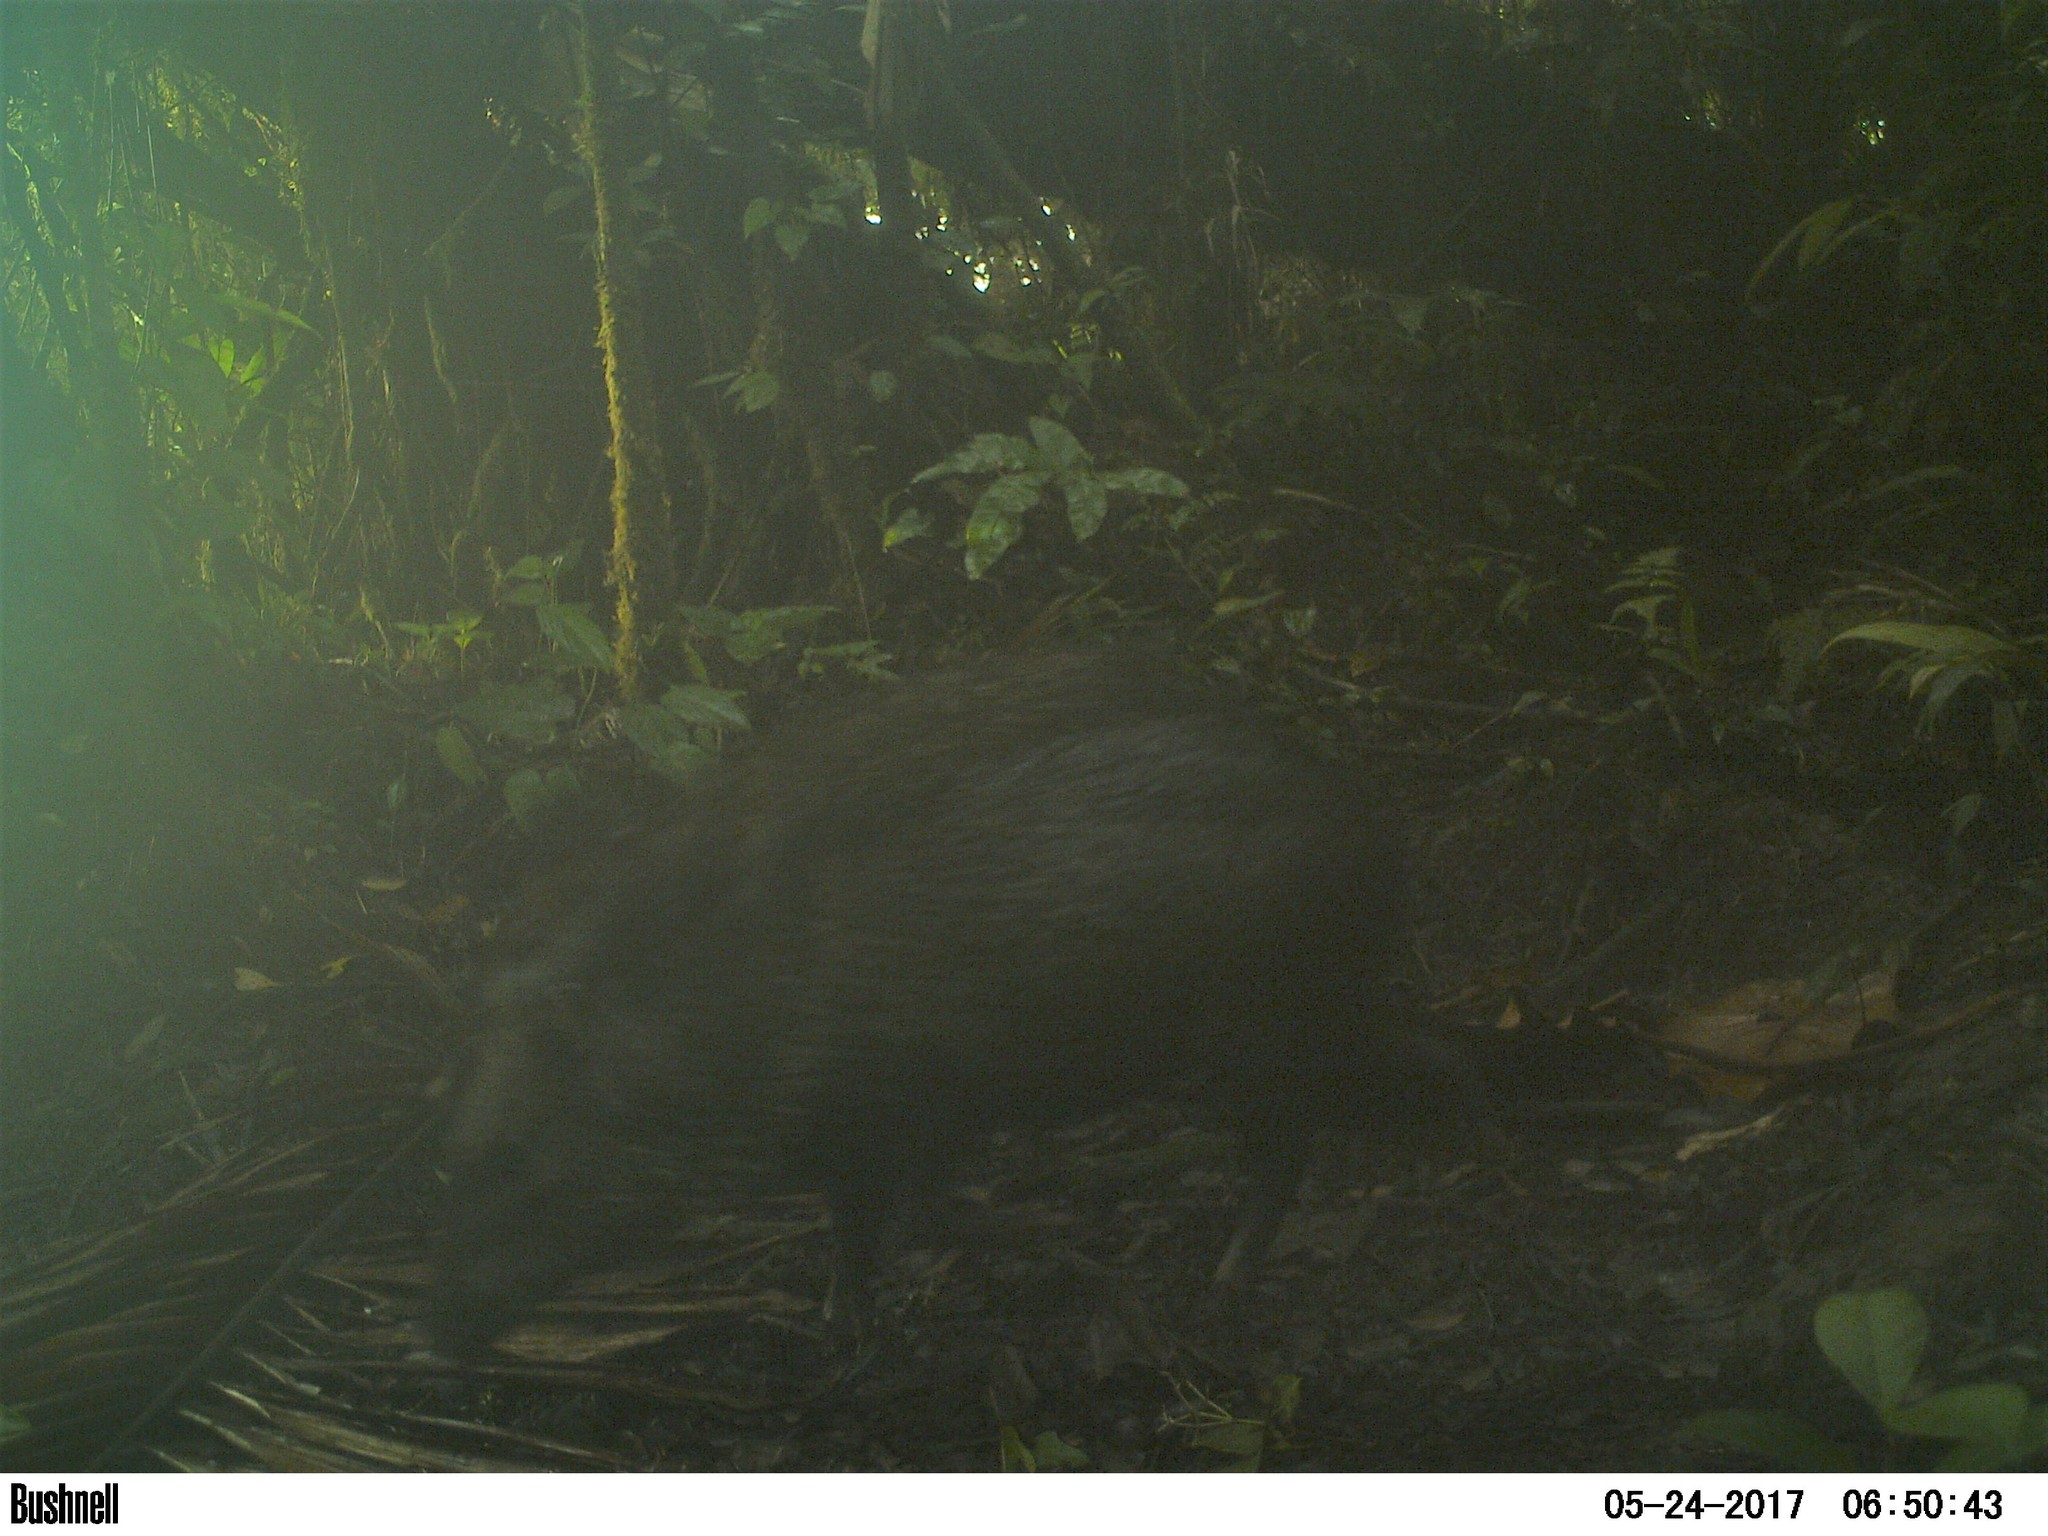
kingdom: Animalia
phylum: Chordata
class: Mammalia
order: Artiodactyla
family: Tayassuidae
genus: Pecari
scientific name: Pecari tajacu
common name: Collared peccary
